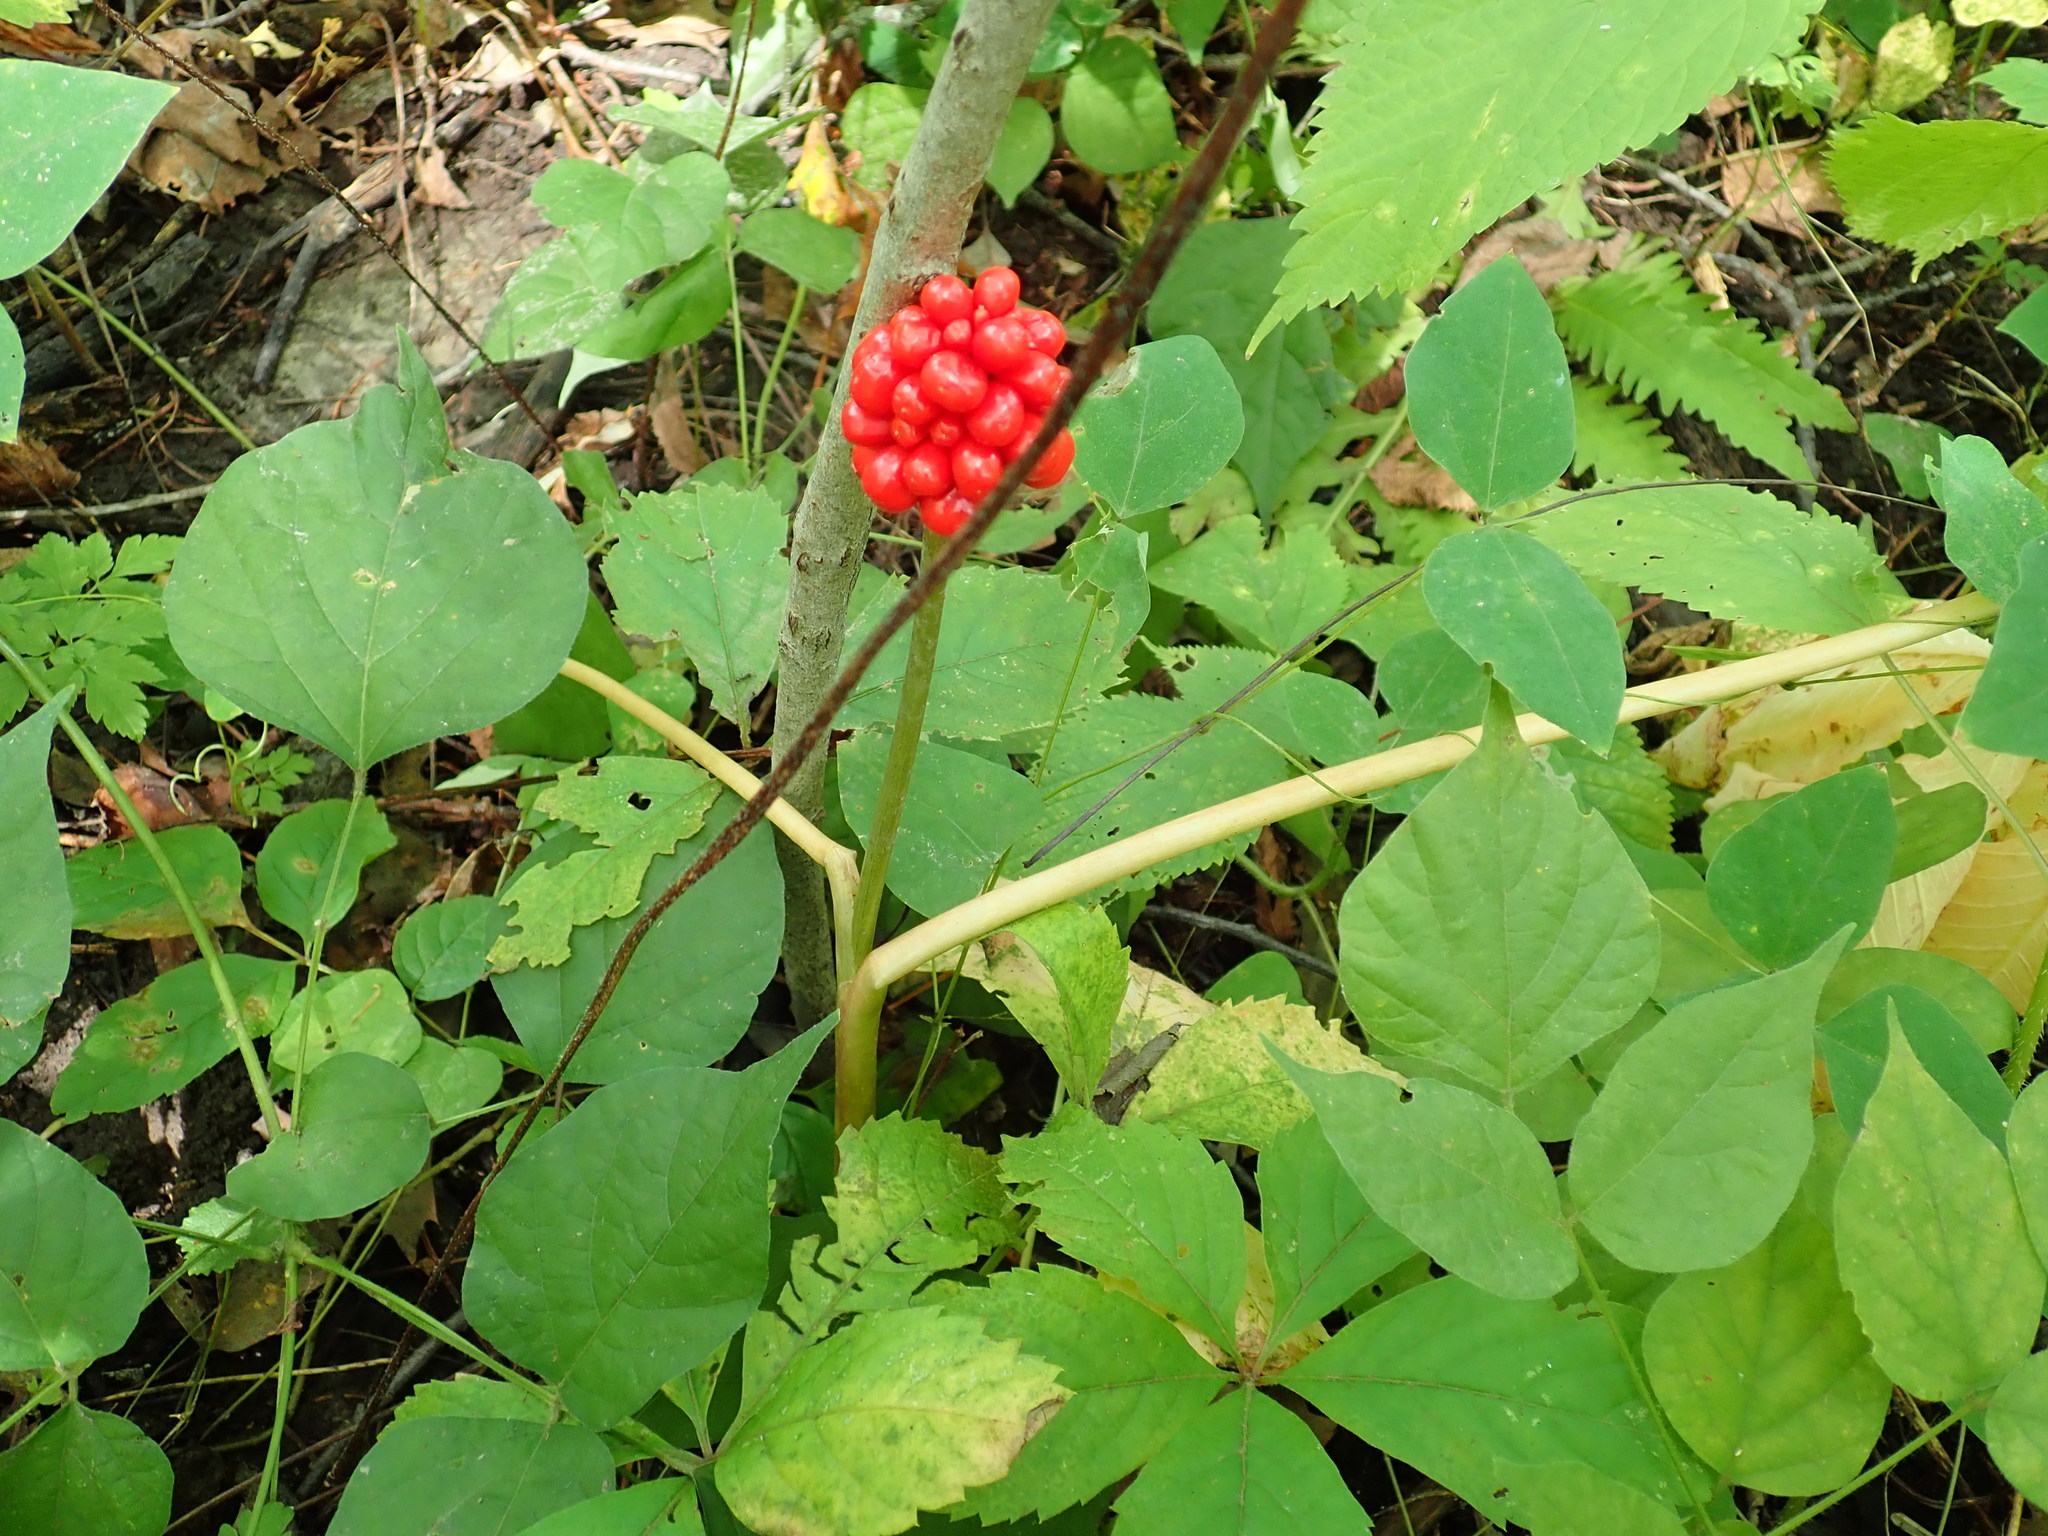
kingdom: Plantae
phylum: Tracheophyta
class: Liliopsida
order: Alismatales
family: Araceae
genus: Arisaema
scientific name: Arisaema triphyllum
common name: Jack-in-the-pulpit
